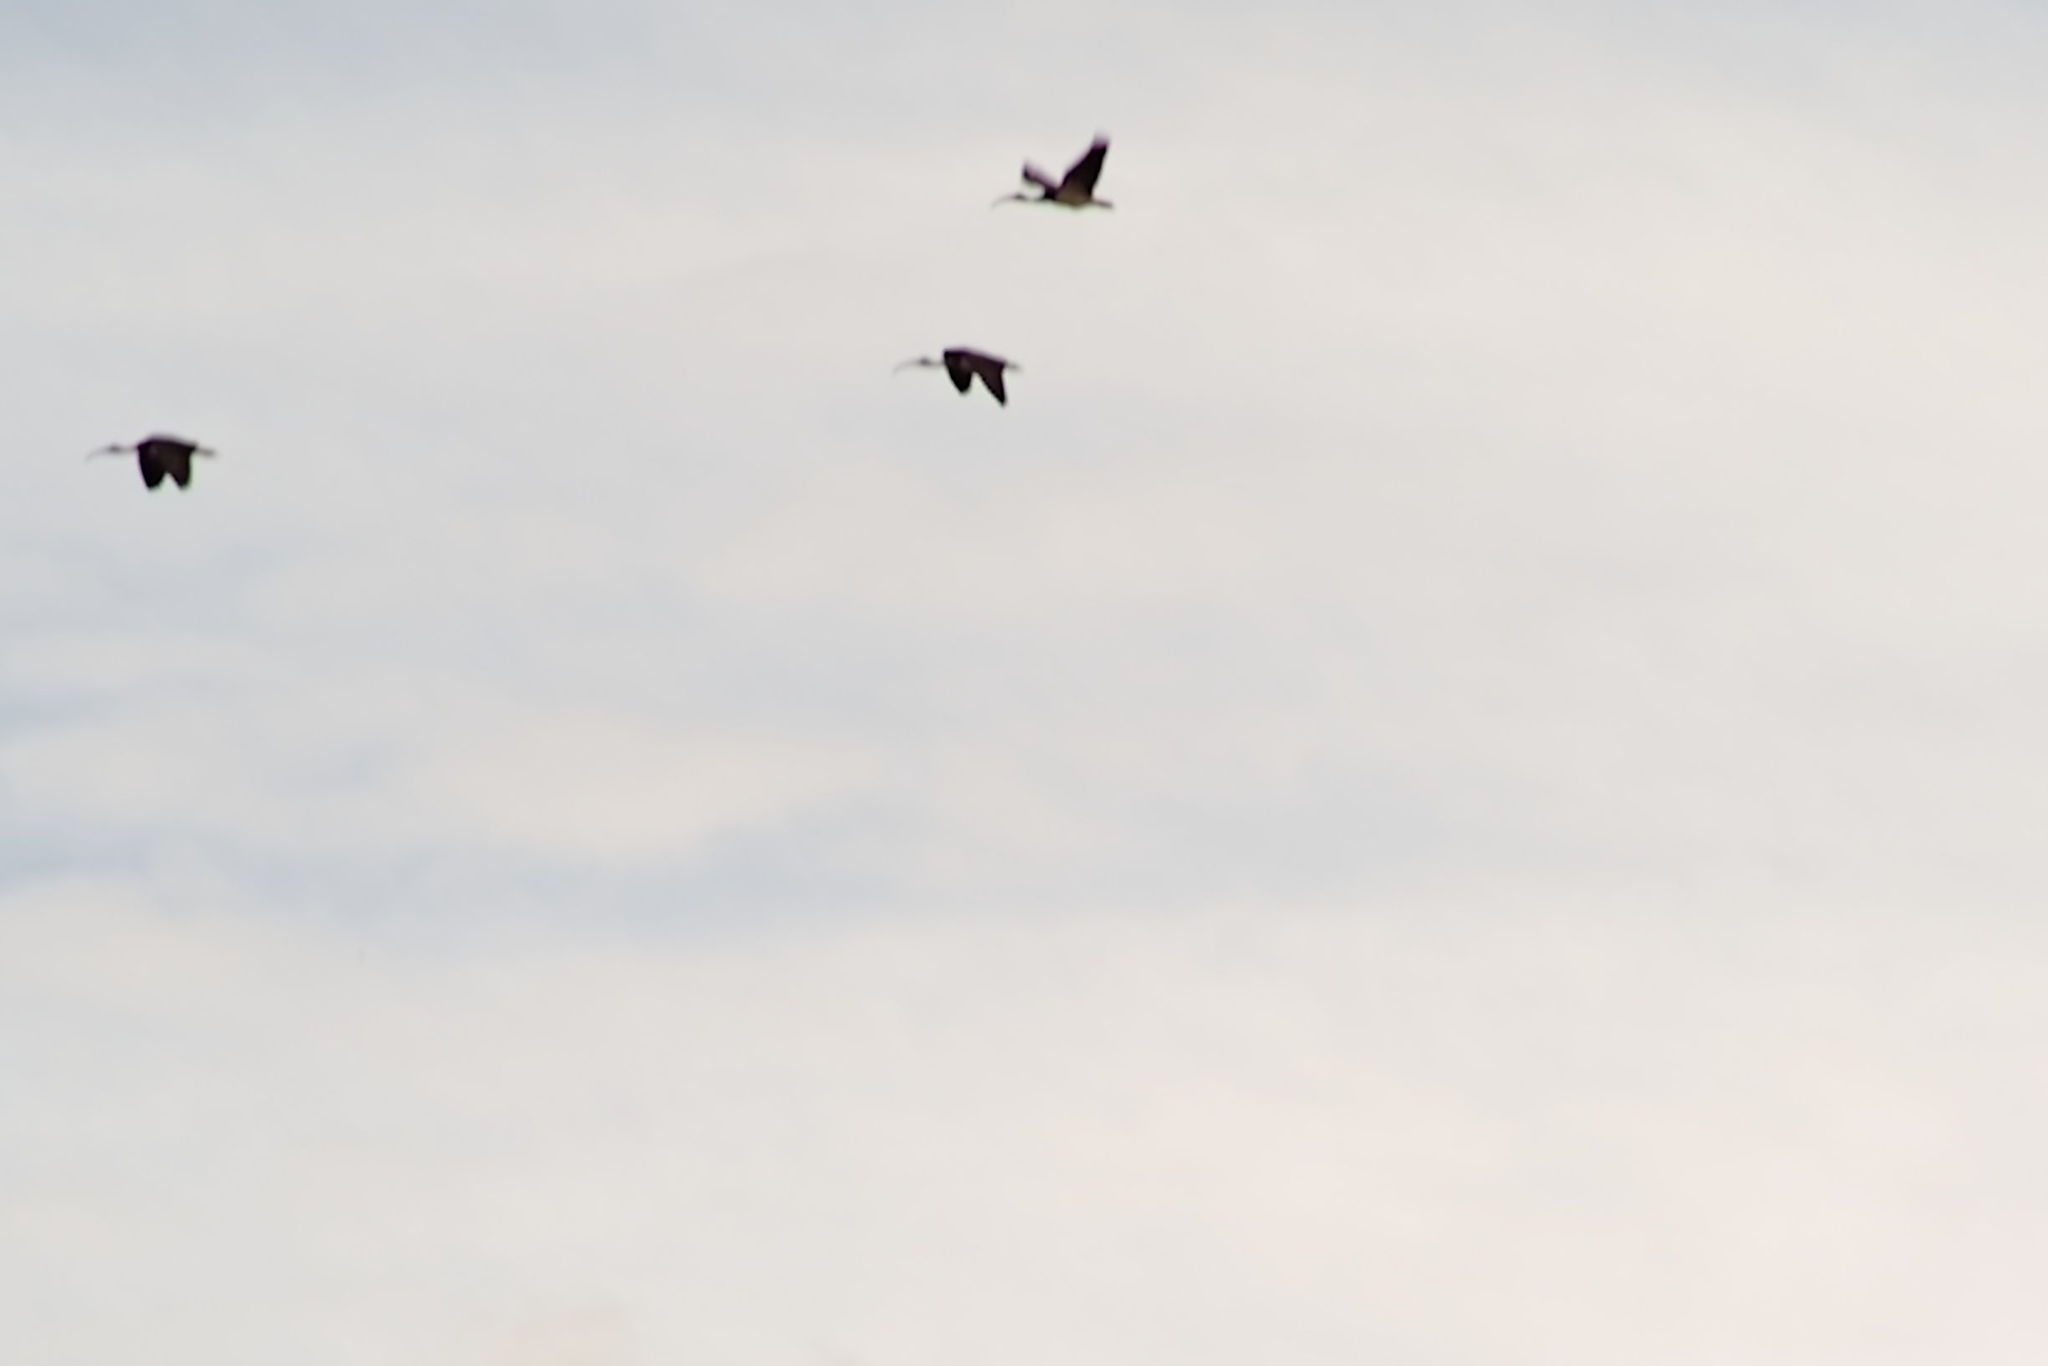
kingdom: Animalia
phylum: Chordata
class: Aves
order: Pelecaniformes
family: Threskiornithidae
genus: Threskiornis
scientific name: Threskiornis spinicollis
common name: Straw-necked ibis
